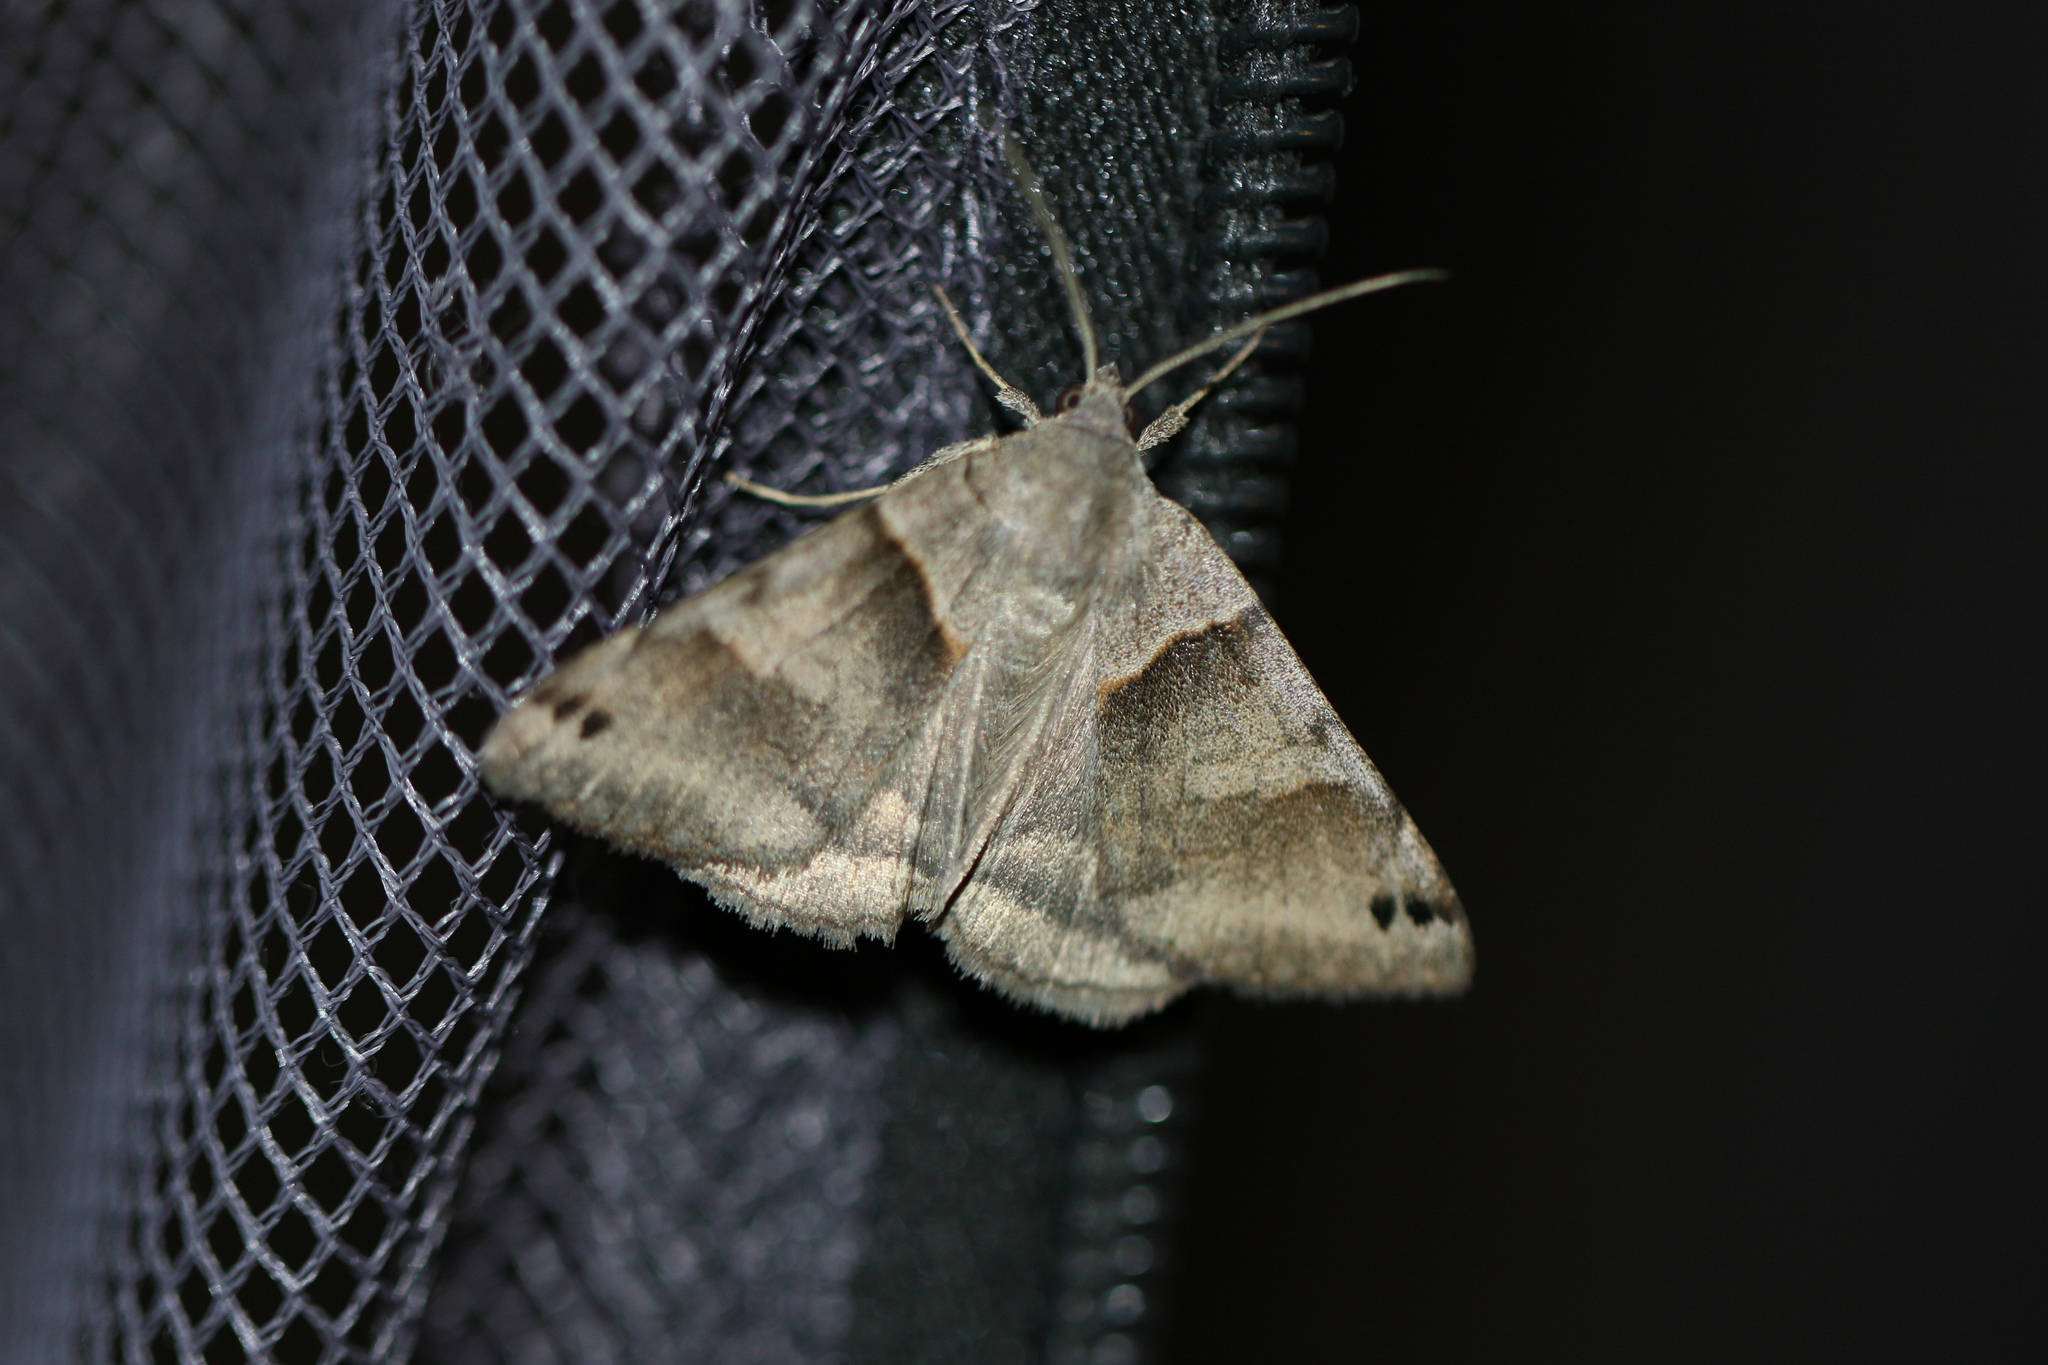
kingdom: Animalia
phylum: Arthropoda
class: Insecta
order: Lepidoptera
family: Erebidae
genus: Caenurgina
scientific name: Caenurgina crassiuscula
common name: Double-barred
